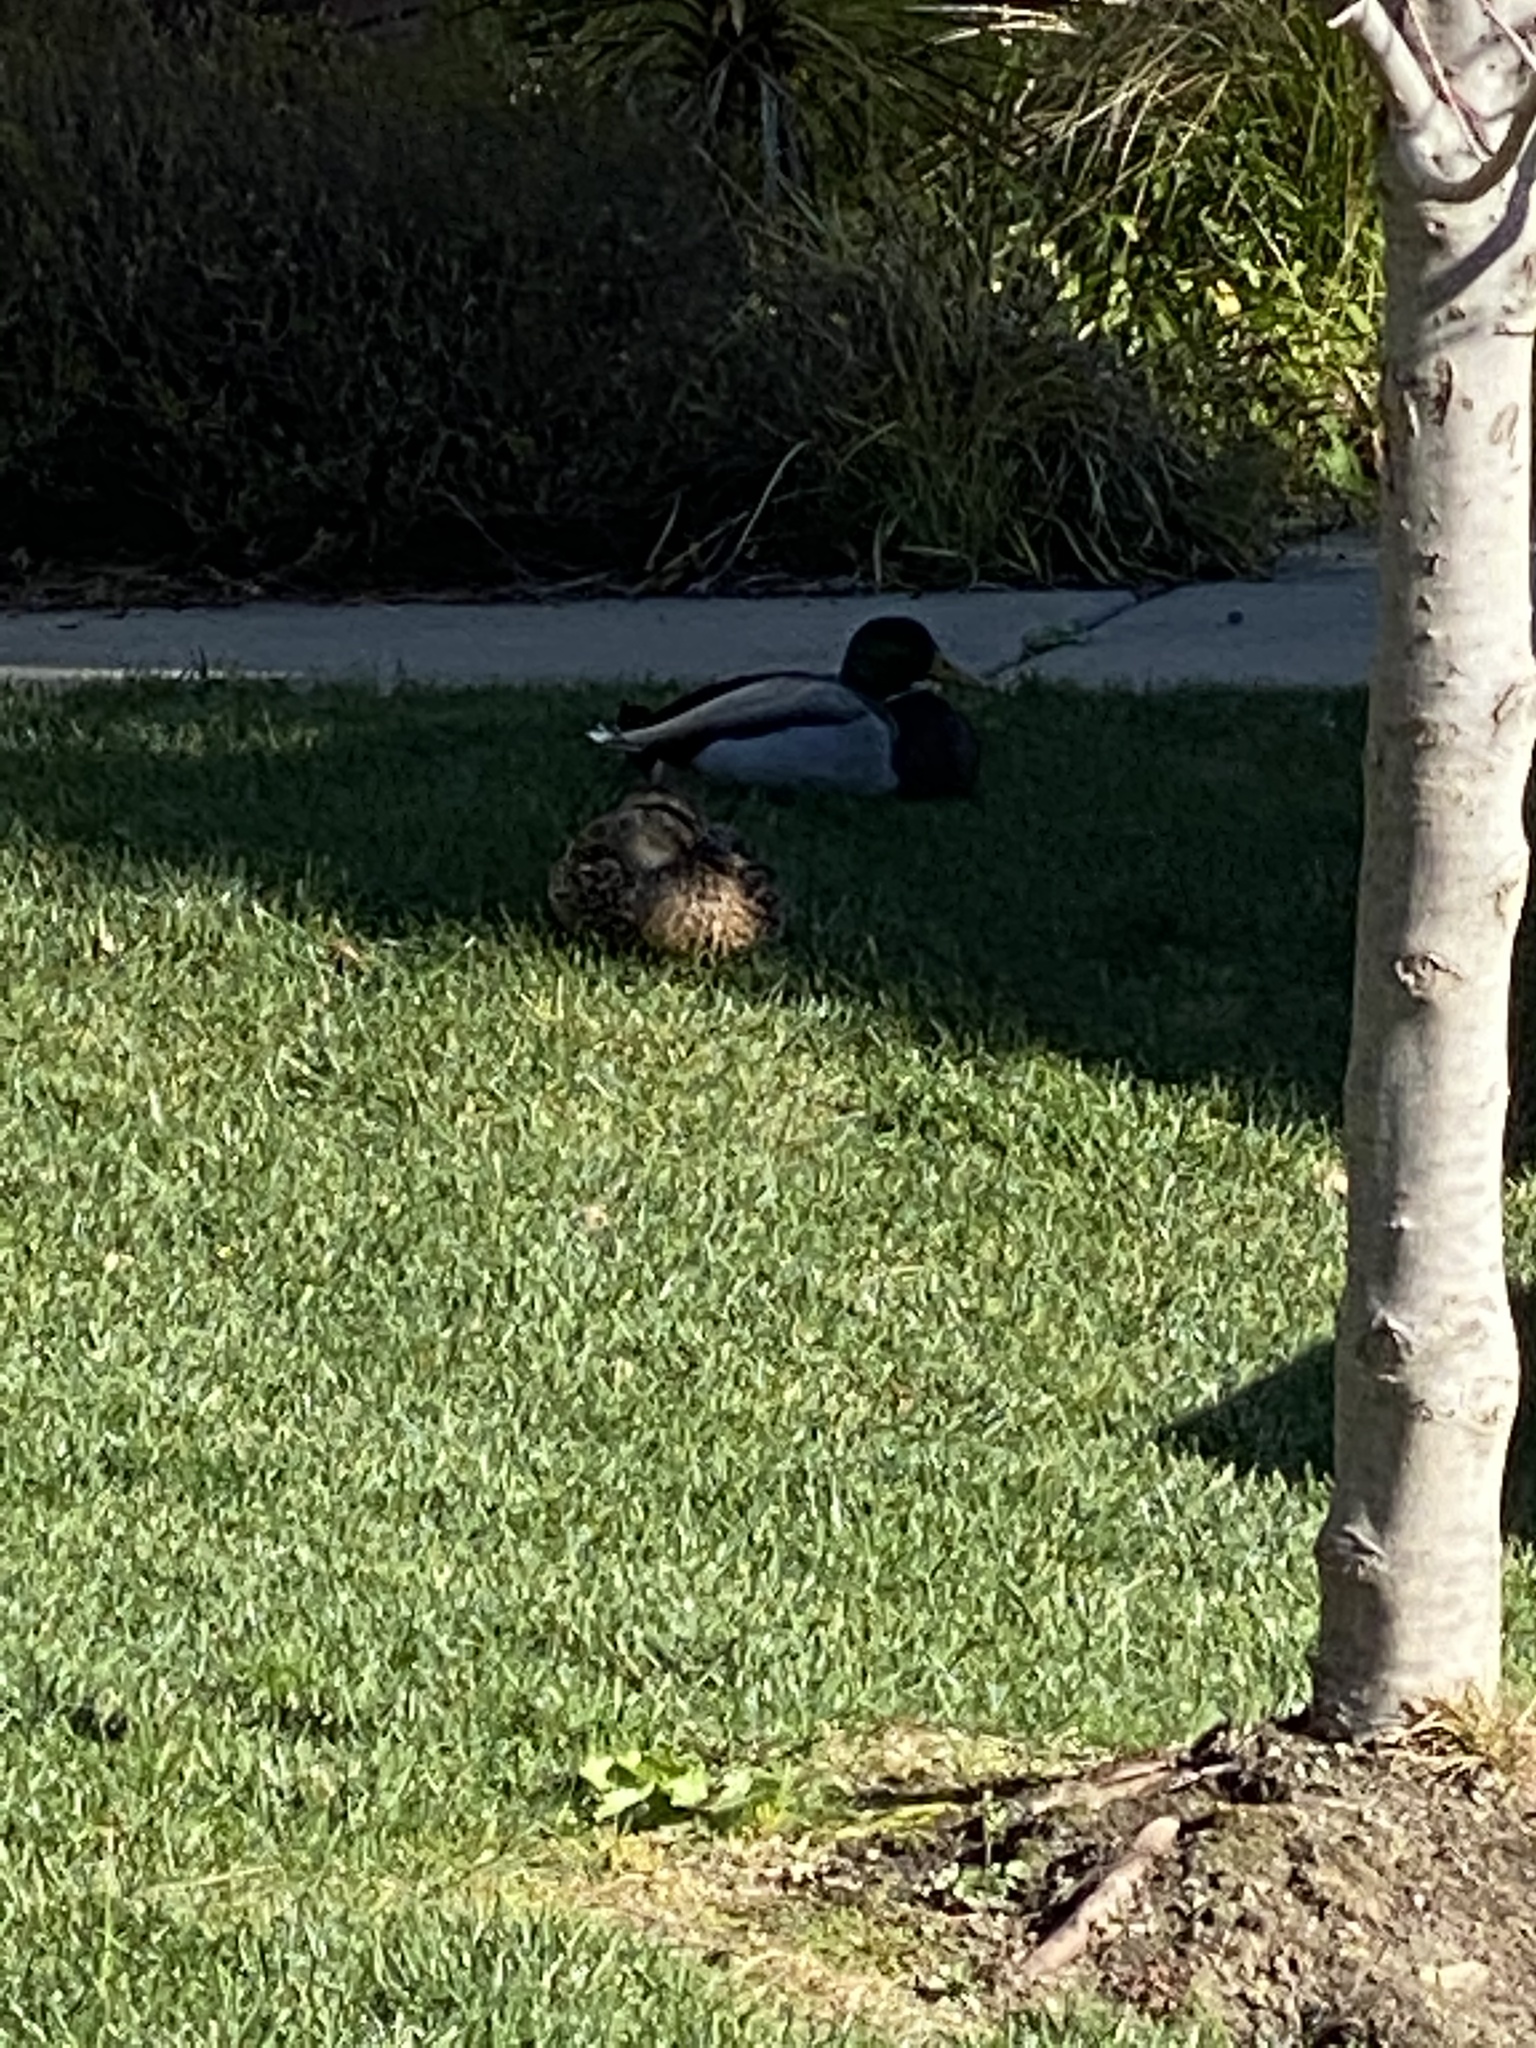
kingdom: Animalia
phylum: Chordata
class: Aves
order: Anseriformes
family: Anatidae
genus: Anas
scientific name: Anas platyrhynchos
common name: Mallard
